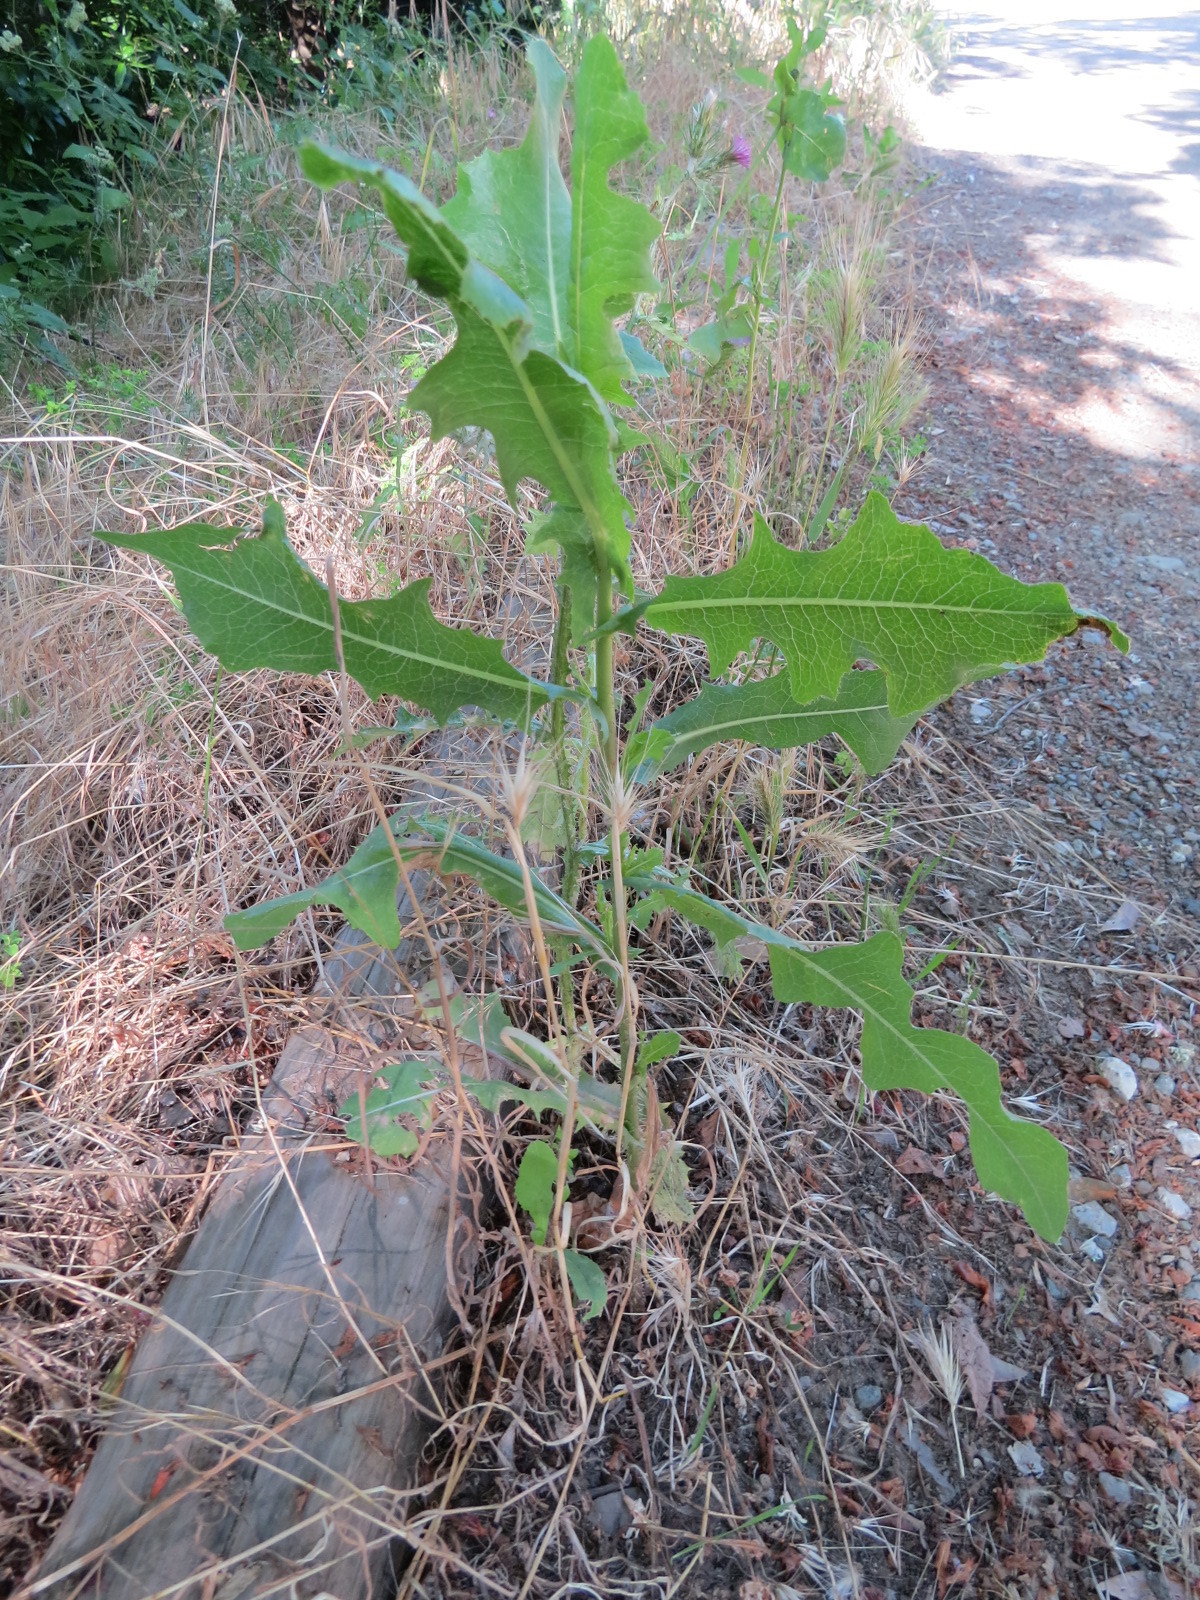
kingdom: Plantae
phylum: Tracheophyta
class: Magnoliopsida
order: Asterales
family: Asteraceae
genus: Lactuca
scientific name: Lactuca serriola
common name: Prickly lettuce
